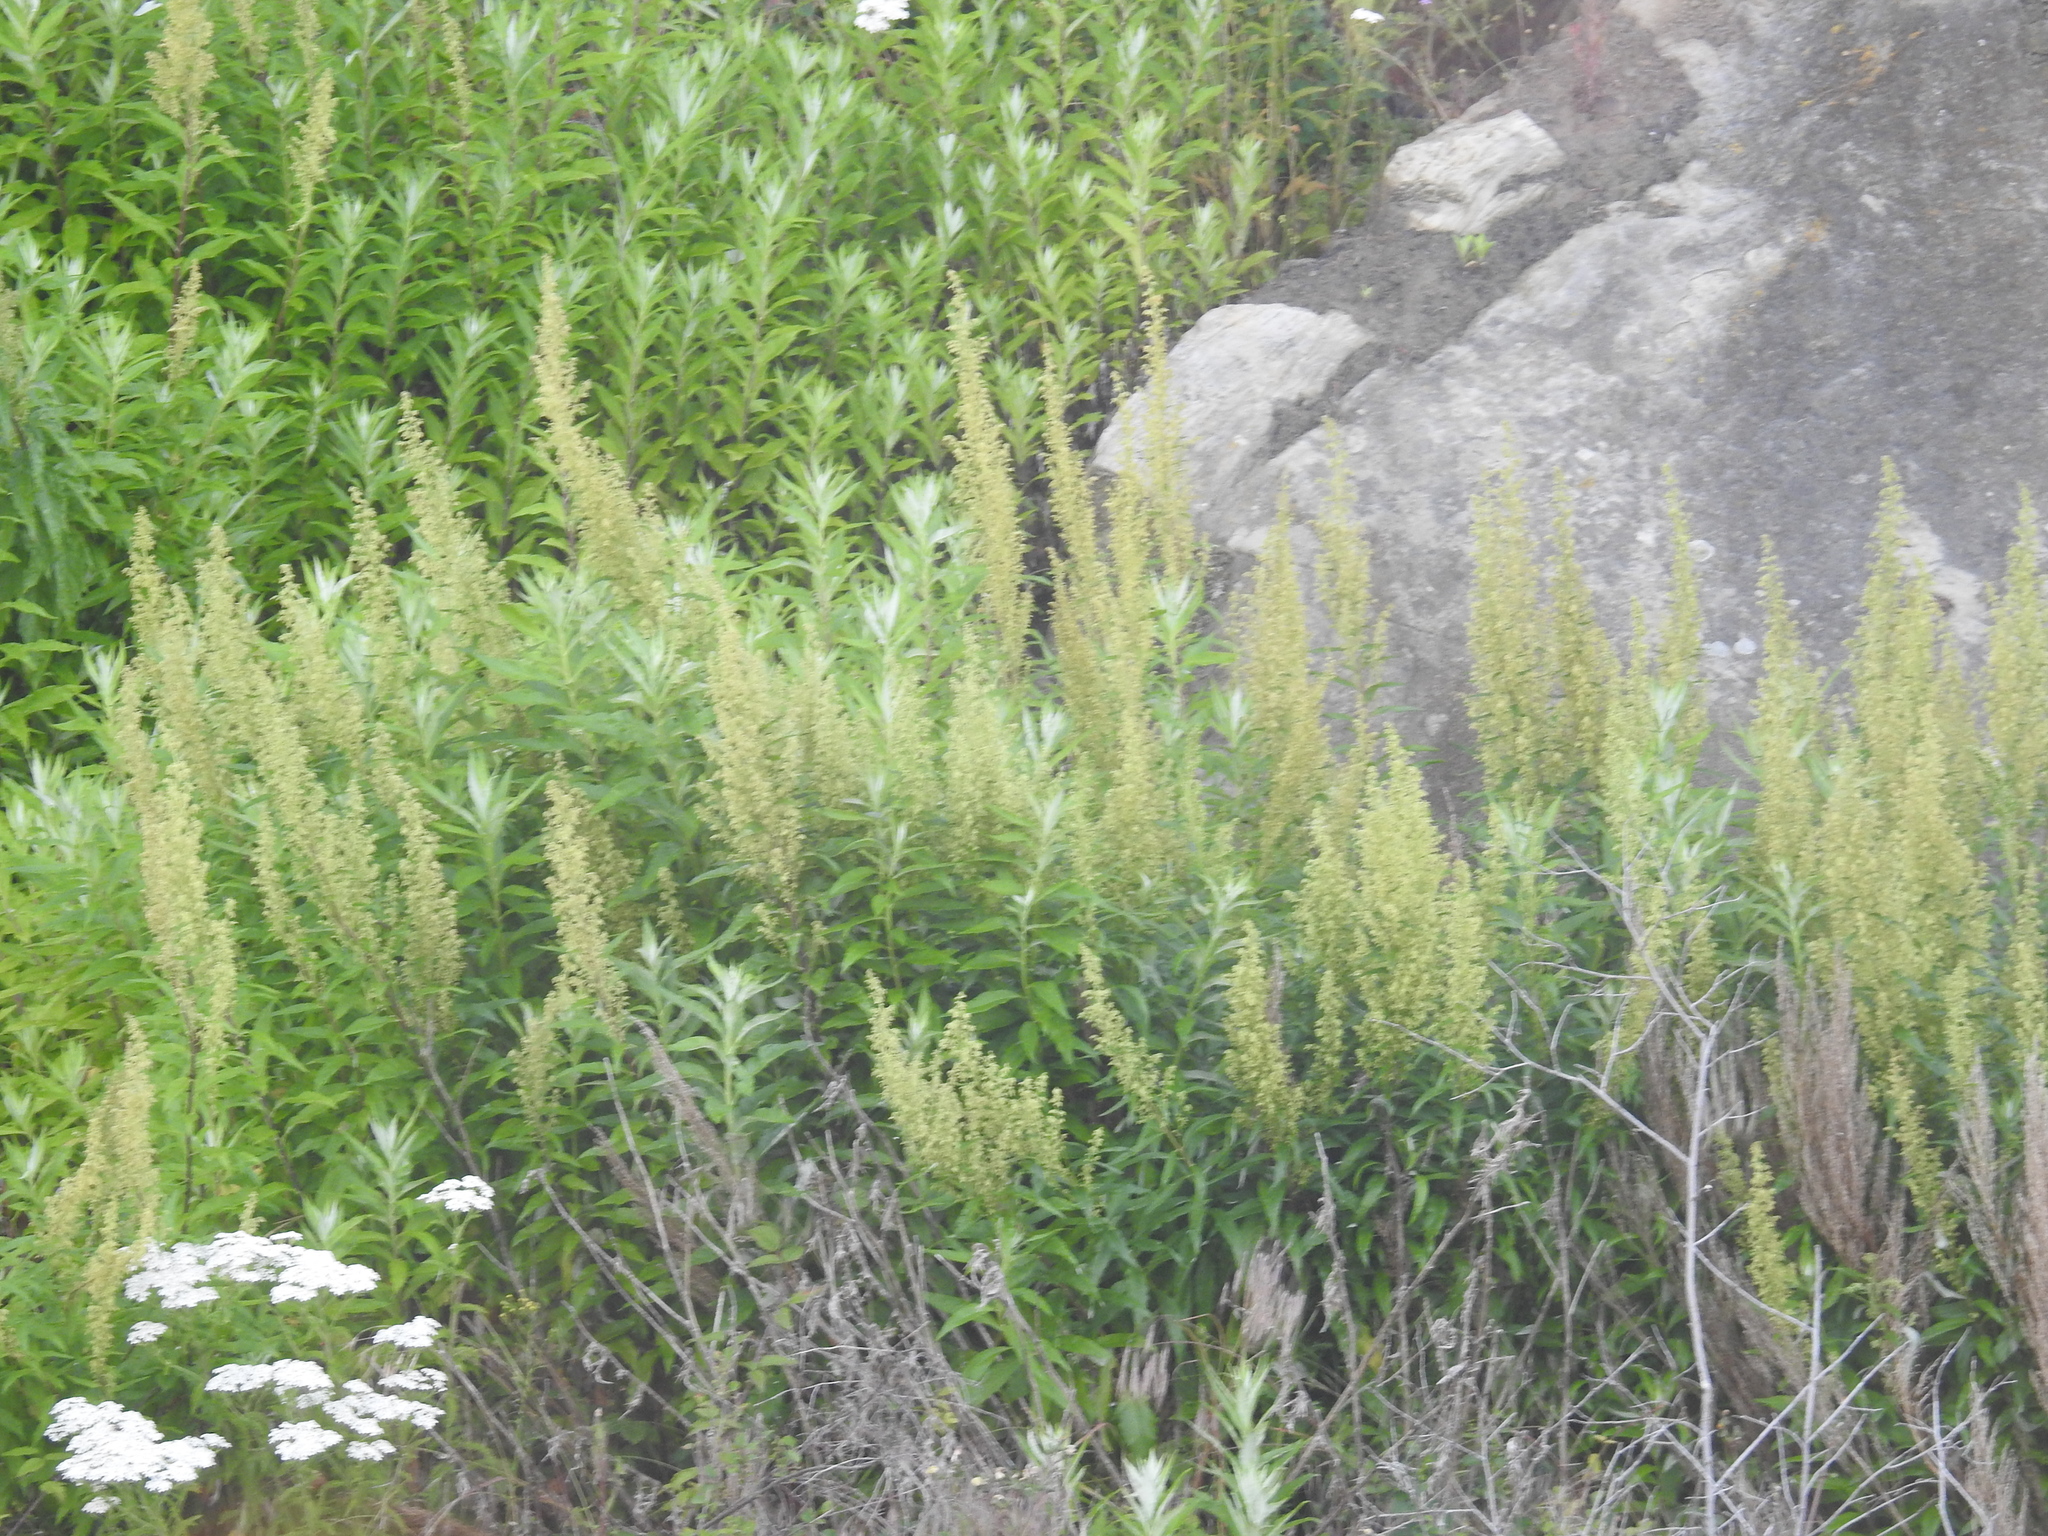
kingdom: Plantae
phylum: Tracheophyta
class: Magnoliopsida
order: Asterales
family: Asteraceae
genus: Artemisia
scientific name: Artemisia suksdorfii
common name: Suksdorf sagewort
